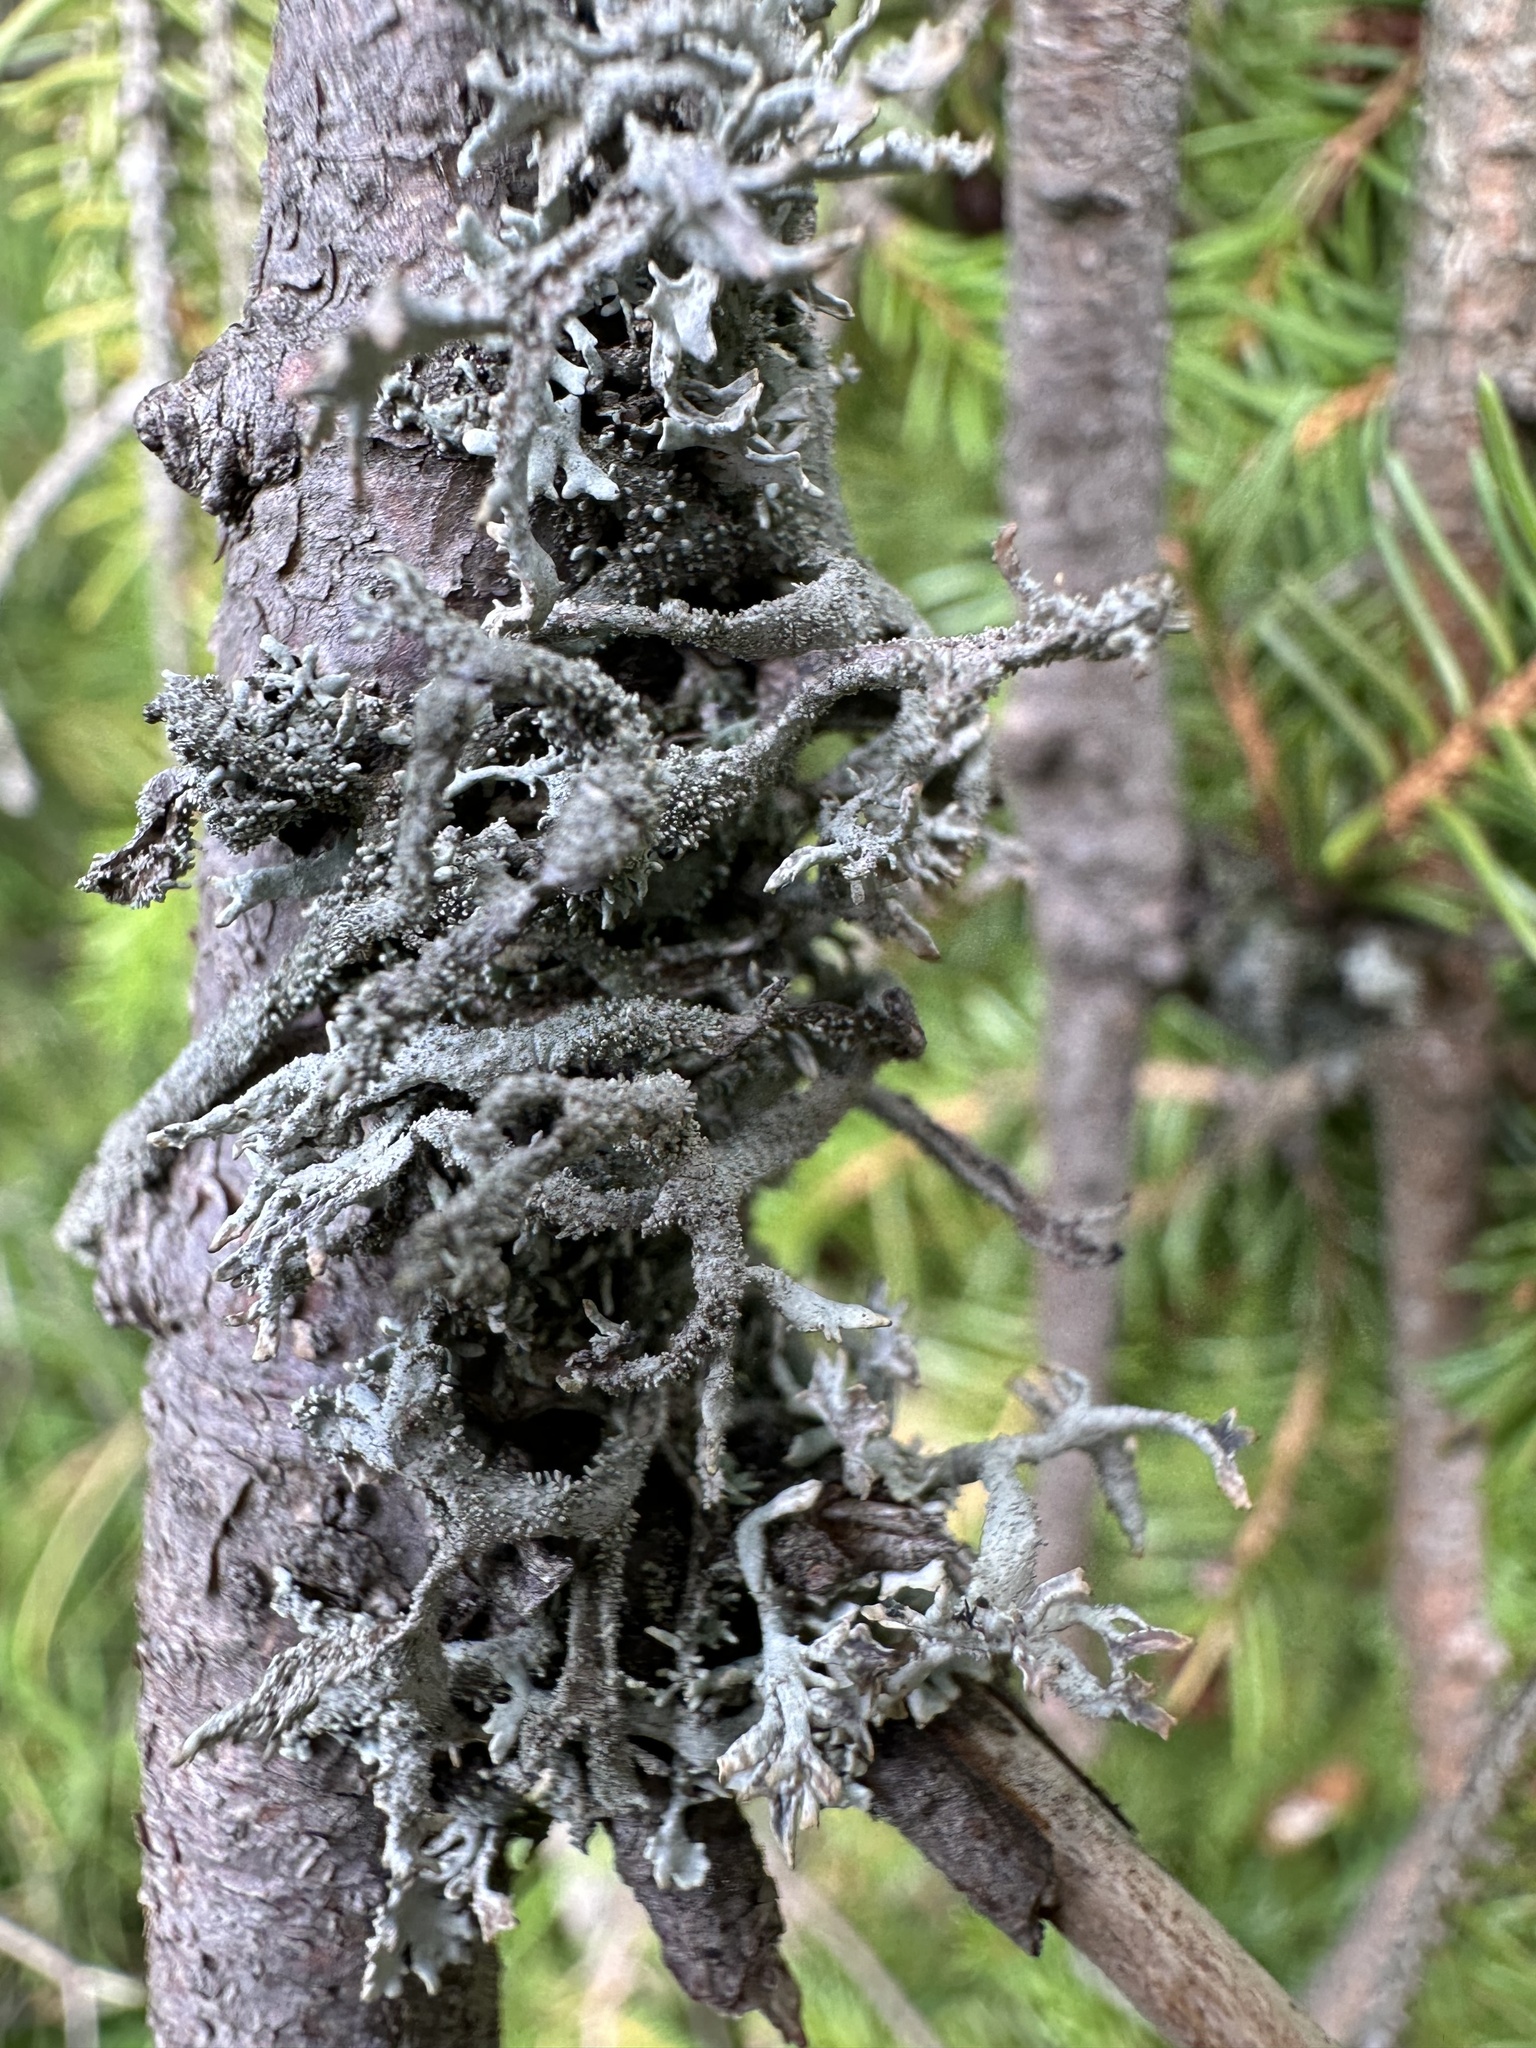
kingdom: Fungi
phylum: Ascomycota
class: Lecanoromycetes
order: Lecanorales
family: Parmeliaceae
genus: Pseudevernia
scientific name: Pseudevernia furfuracea
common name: Tree moss
